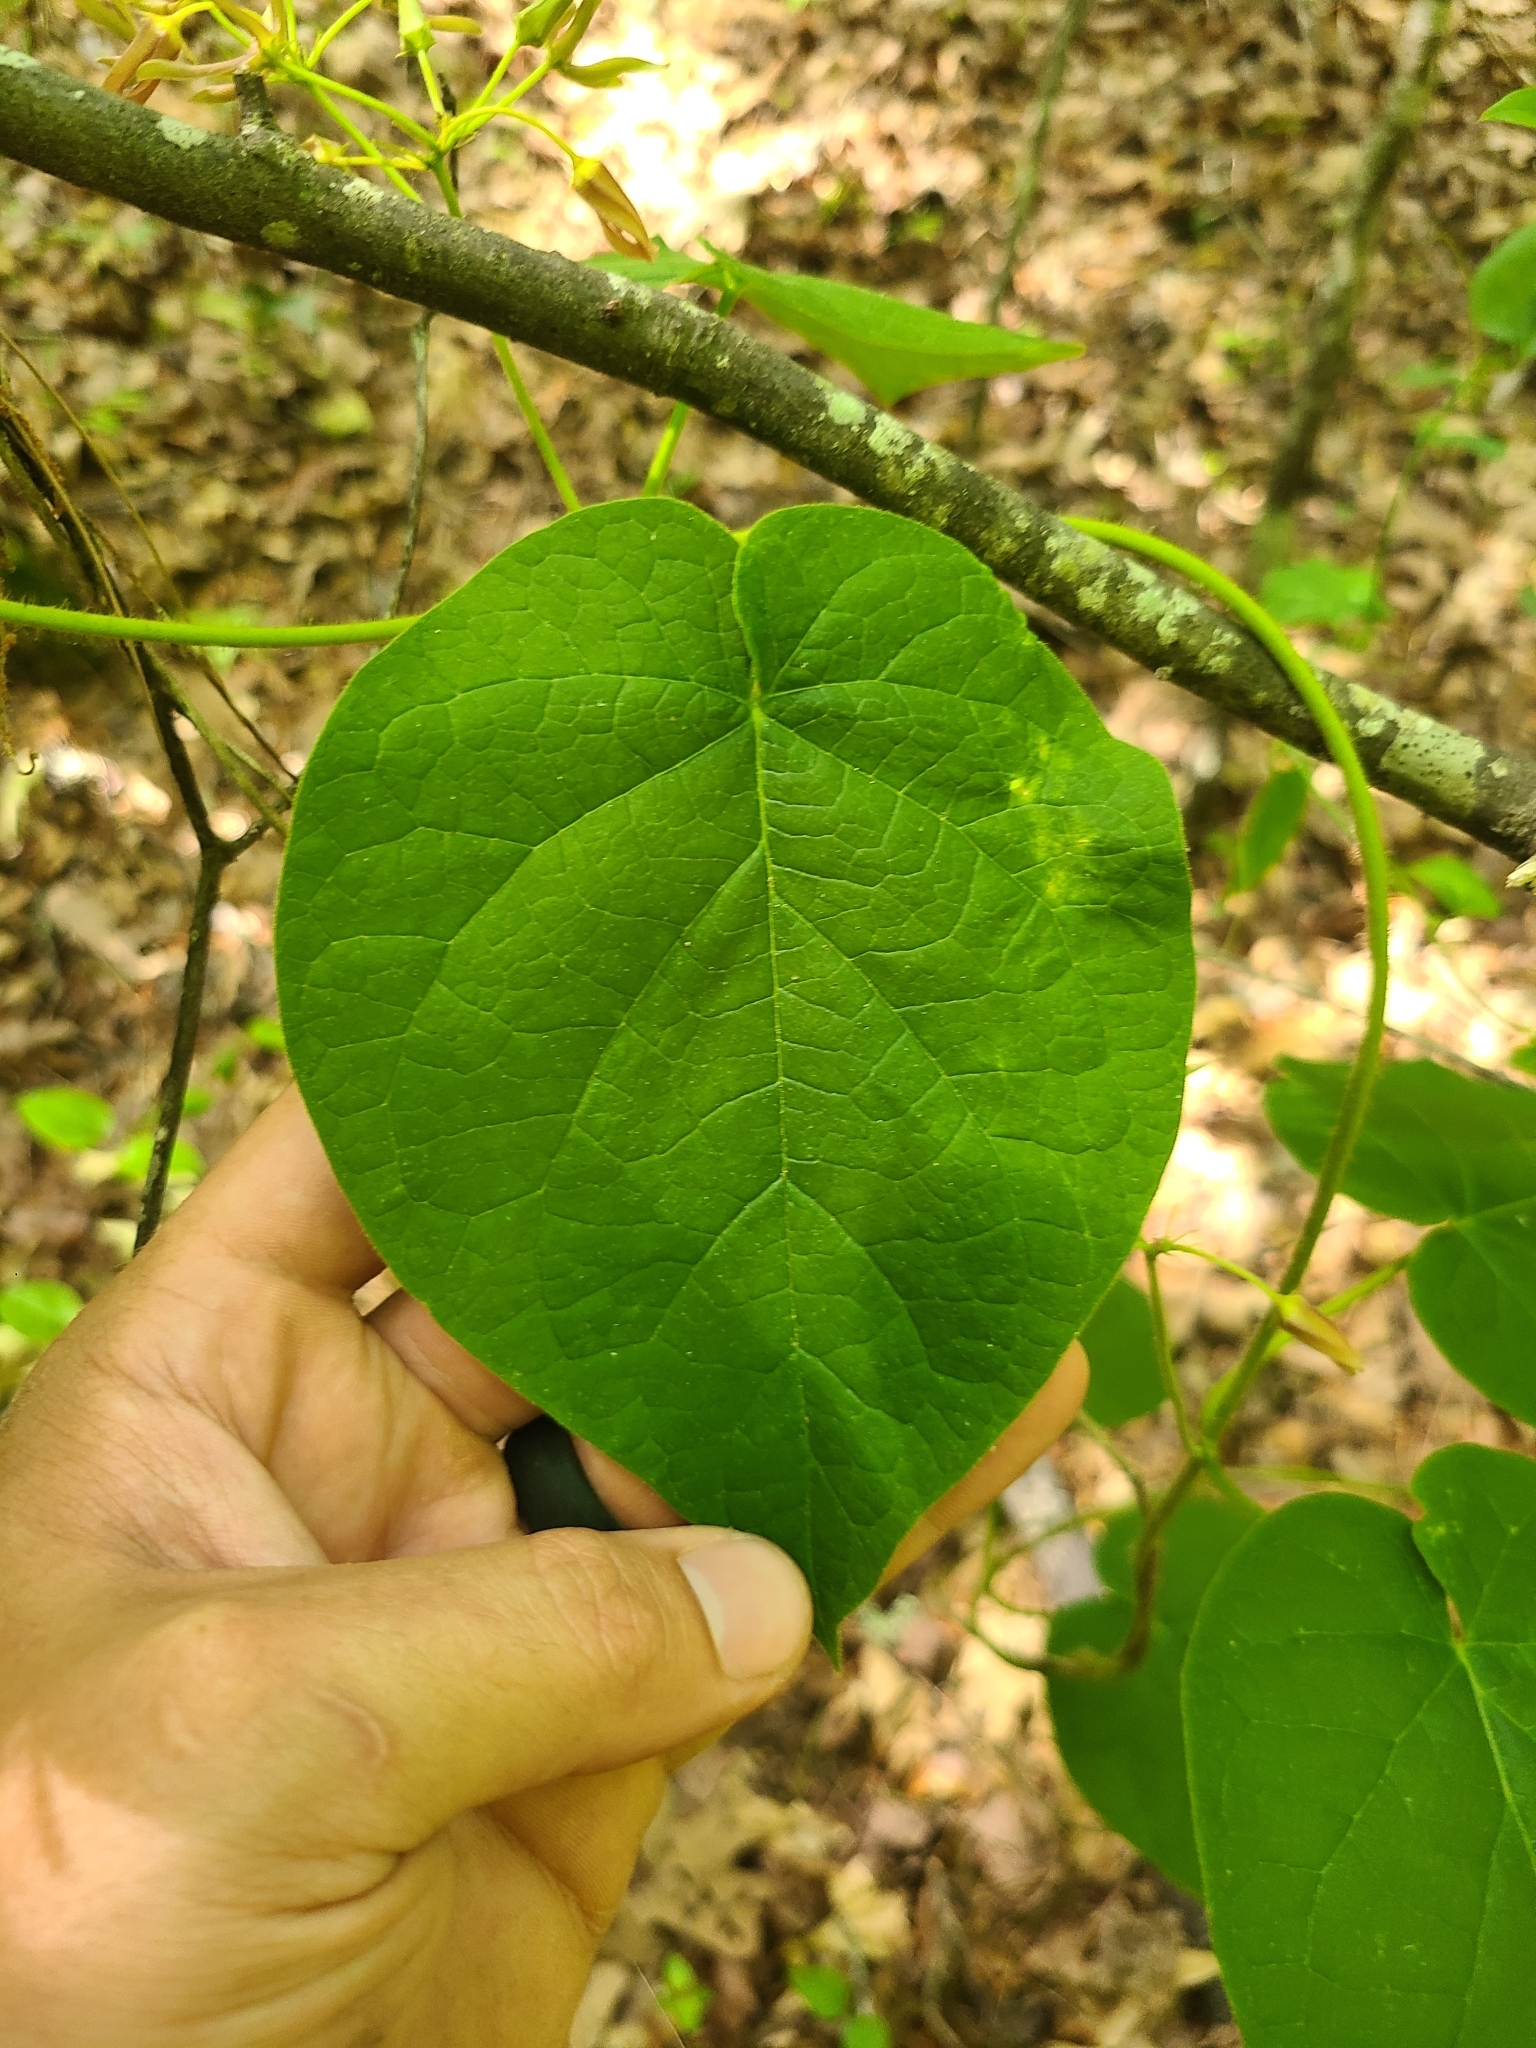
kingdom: Plantae
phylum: Tracheophyta
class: Magnoliopsida
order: Gentianales
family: Apocynaceae
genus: Matelea
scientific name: Matelea obliqua
